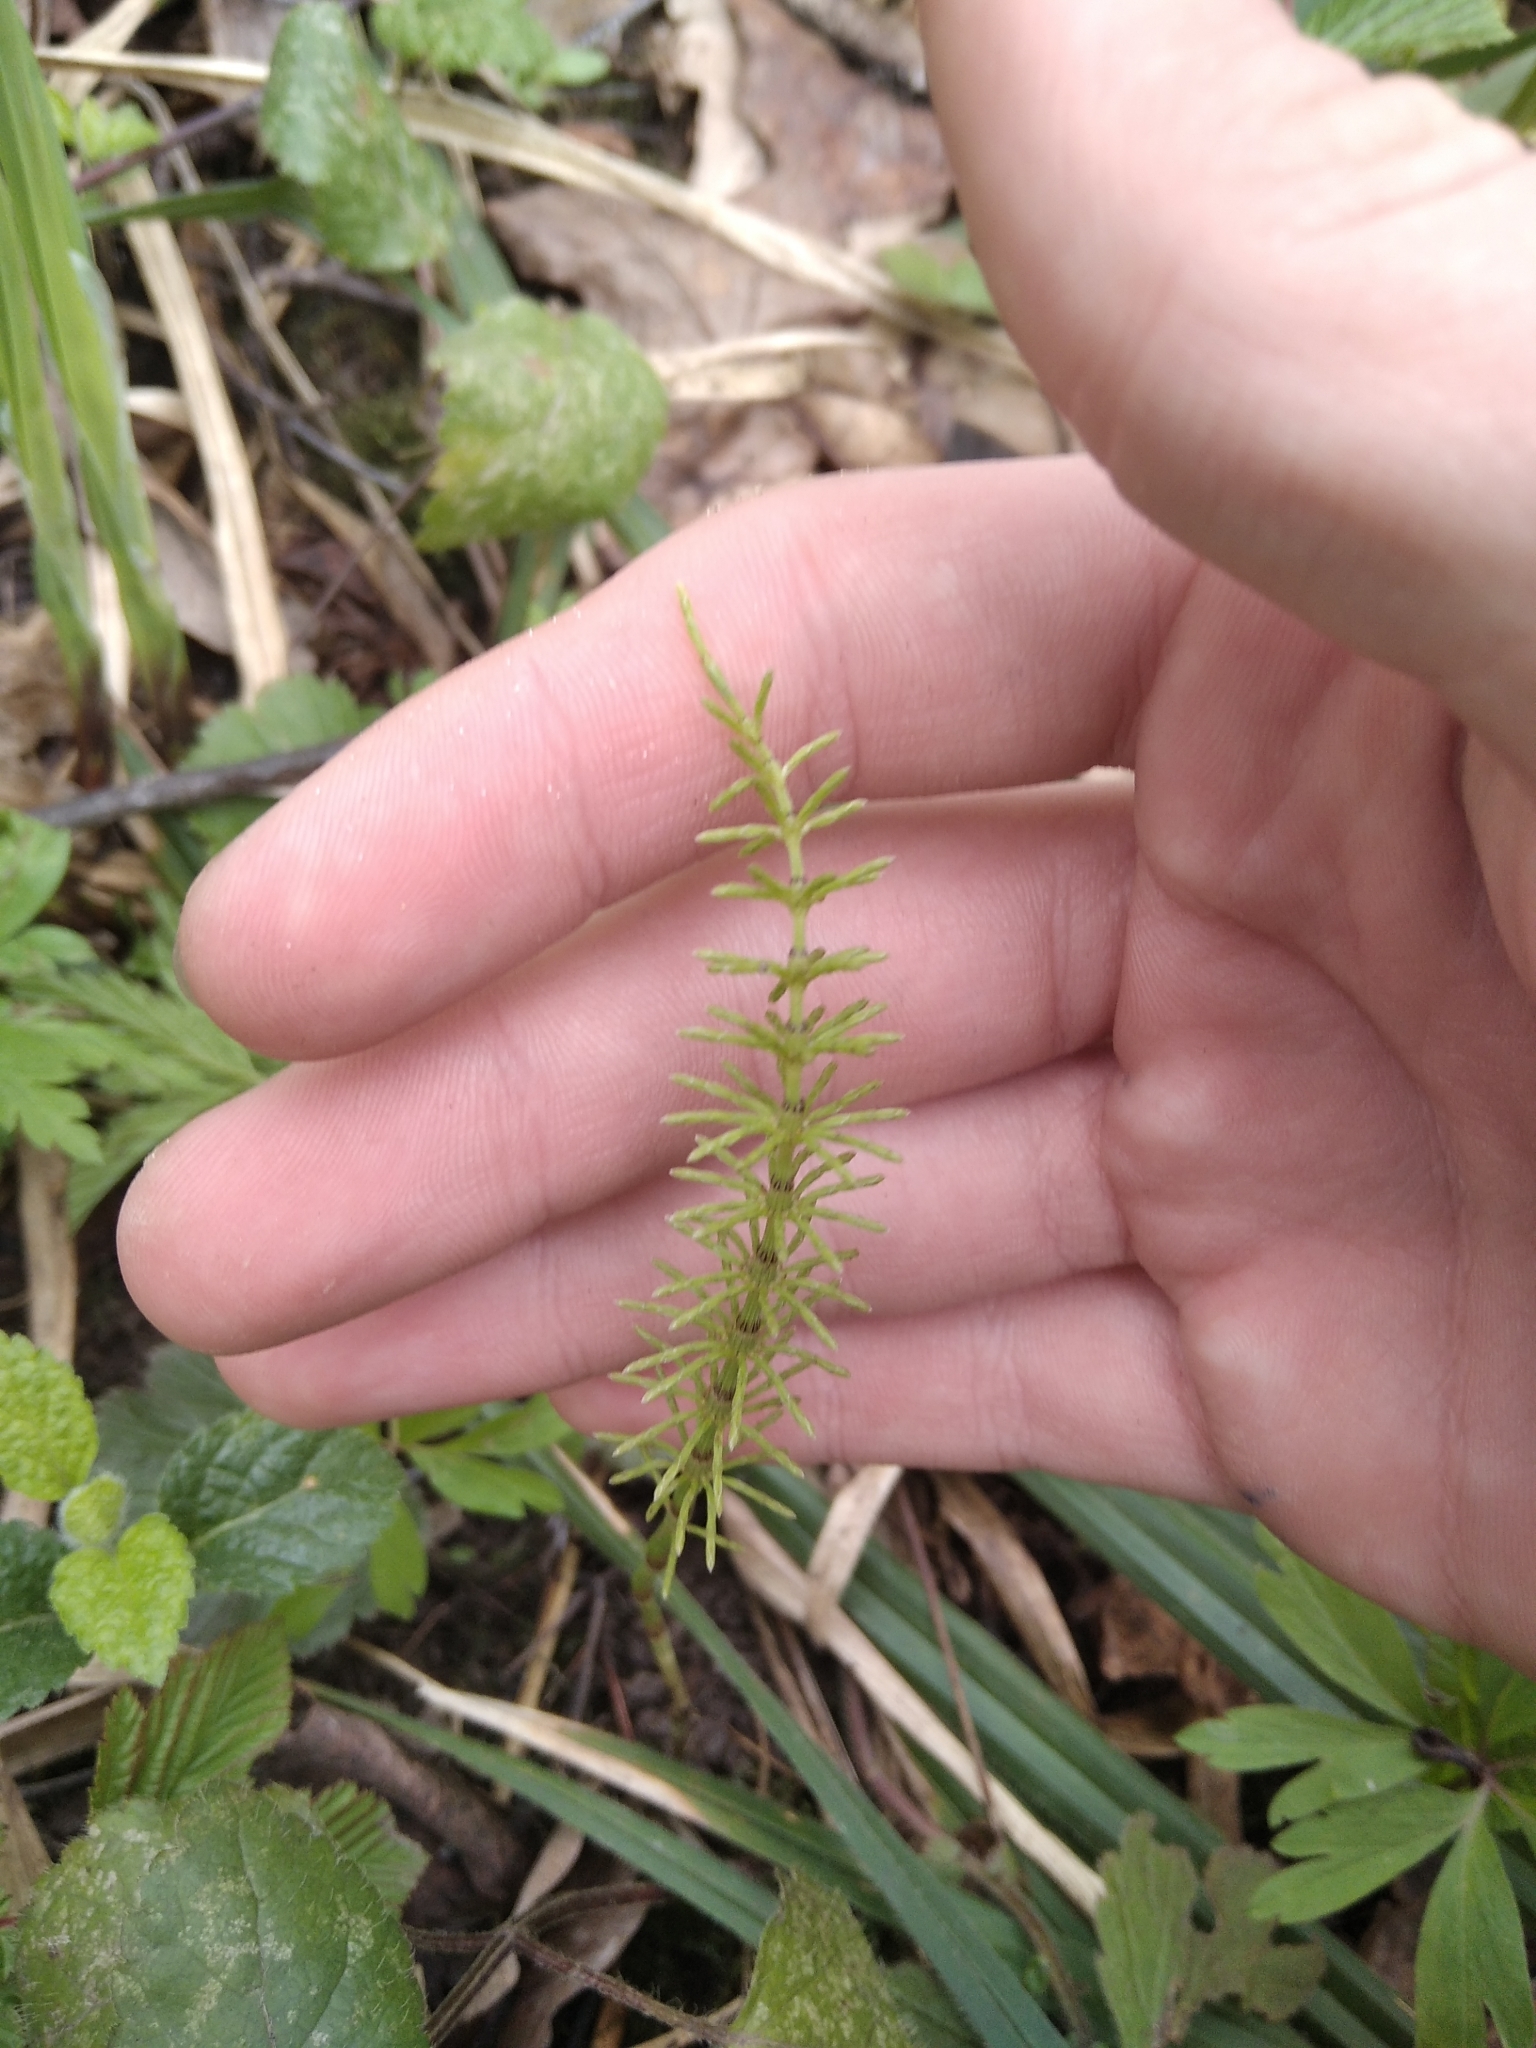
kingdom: Plantae
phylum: Tracheophyta
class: Polypodiopsida
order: Equisetales
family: Equisetaceae
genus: Equisetum
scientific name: Equisetum pratense
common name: Meadow horsetail
